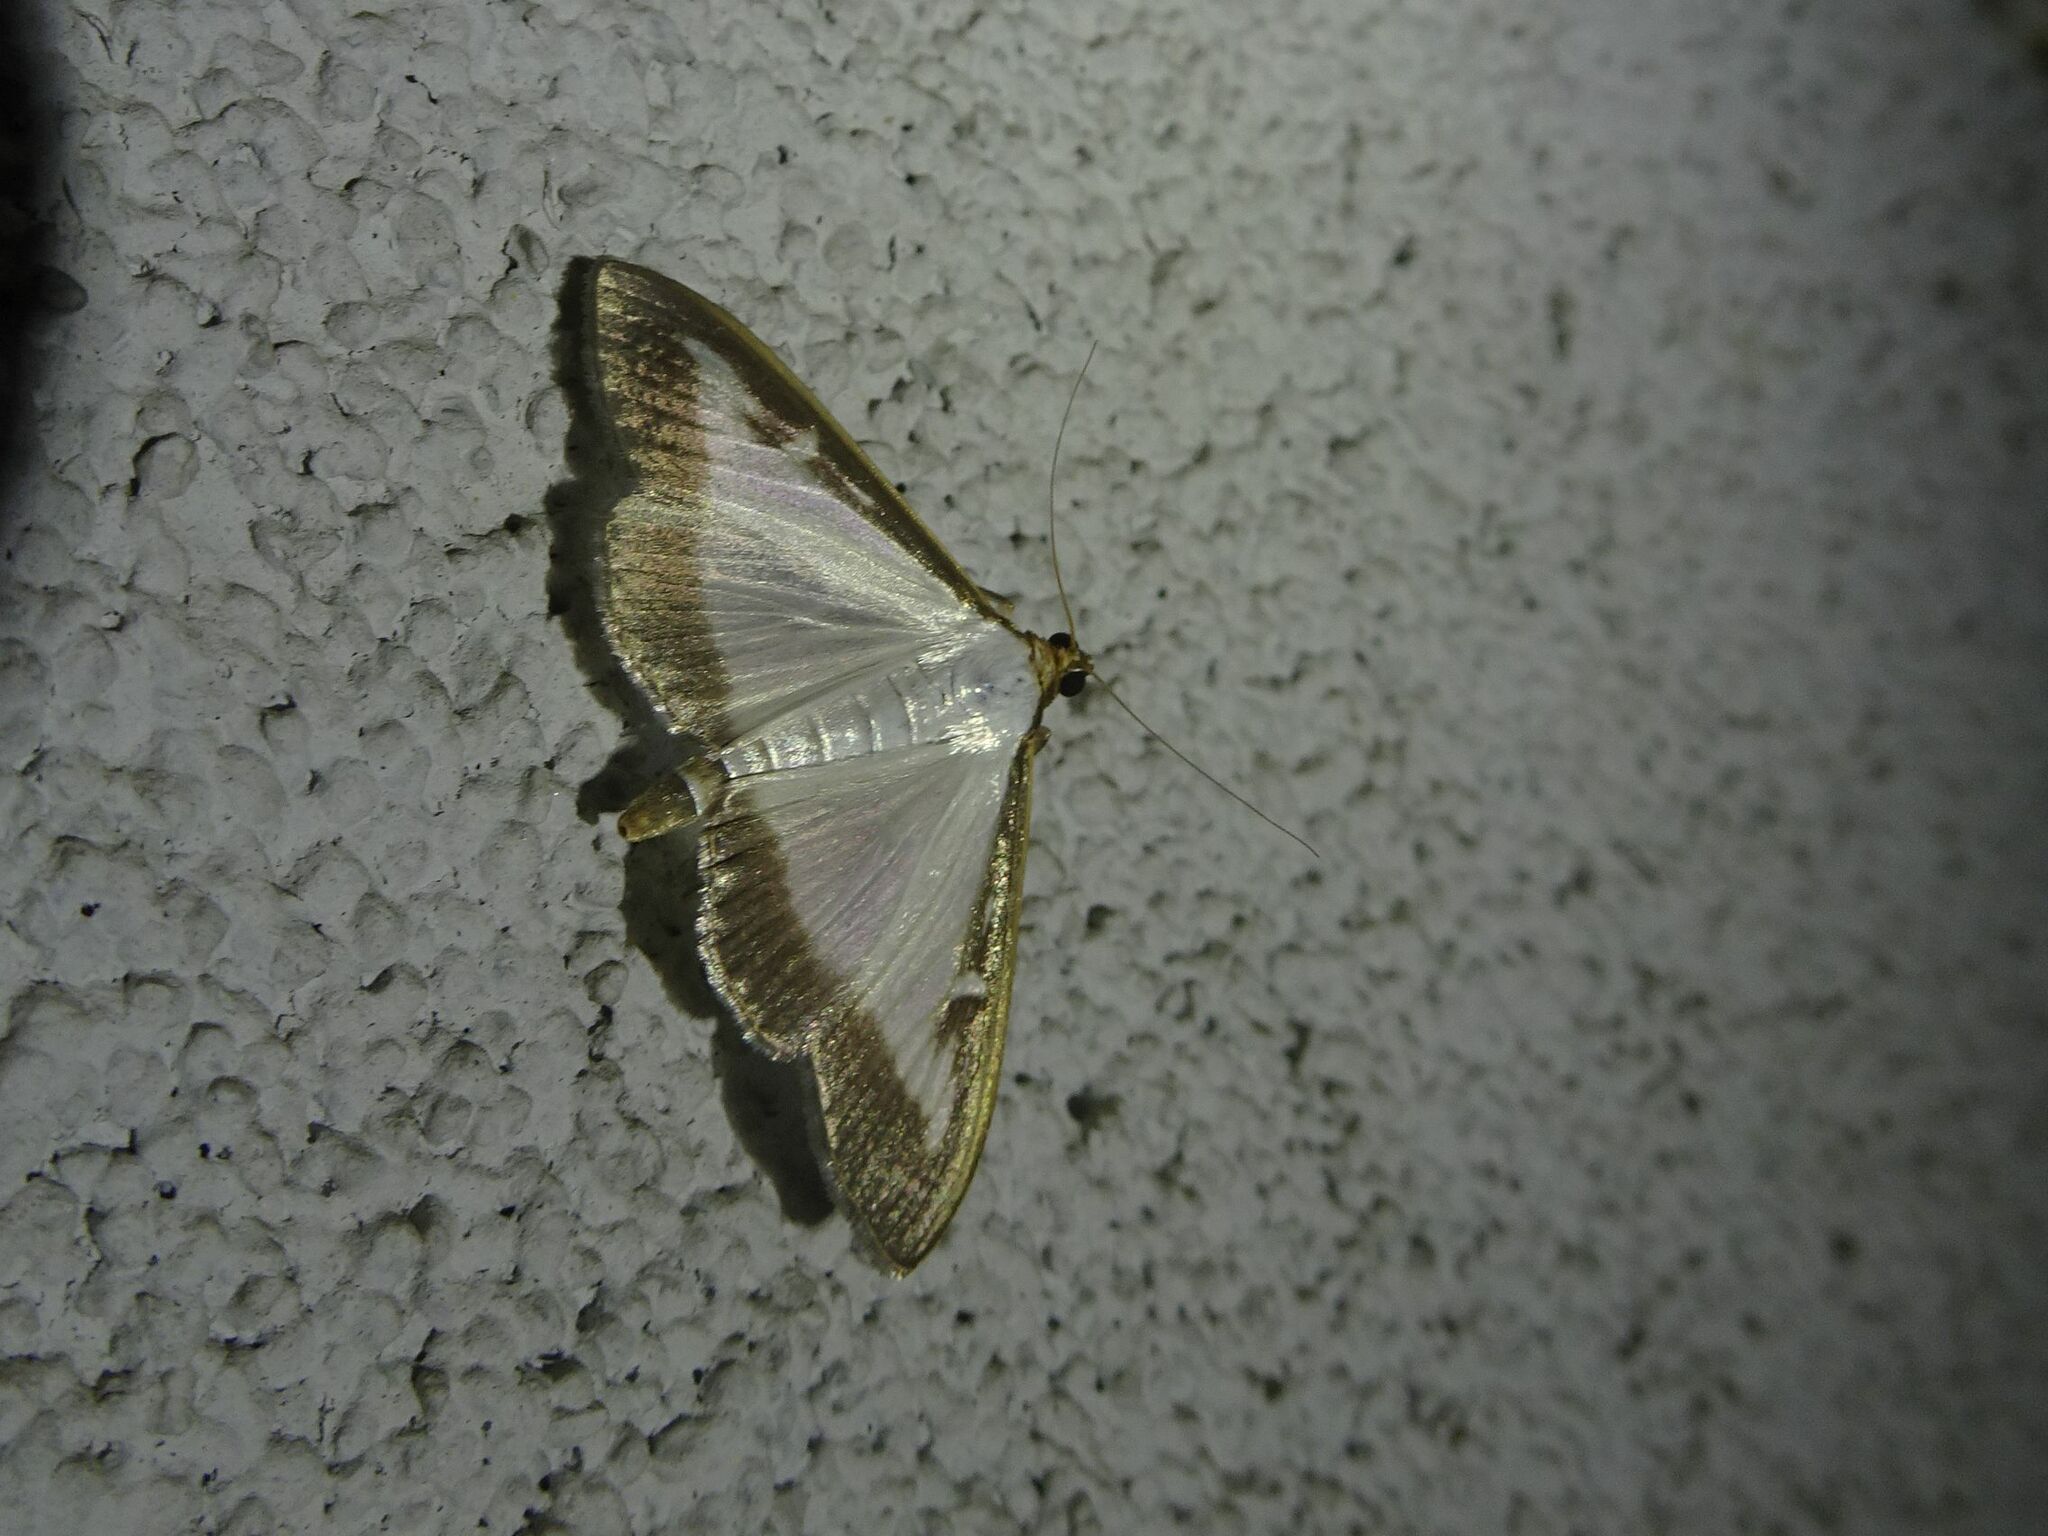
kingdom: Animalia
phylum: Arthropoda
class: Insecta
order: Lepidoptera
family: Crambidae
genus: Cydalima
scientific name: Cydalima perspectalis
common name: Box tree moth
